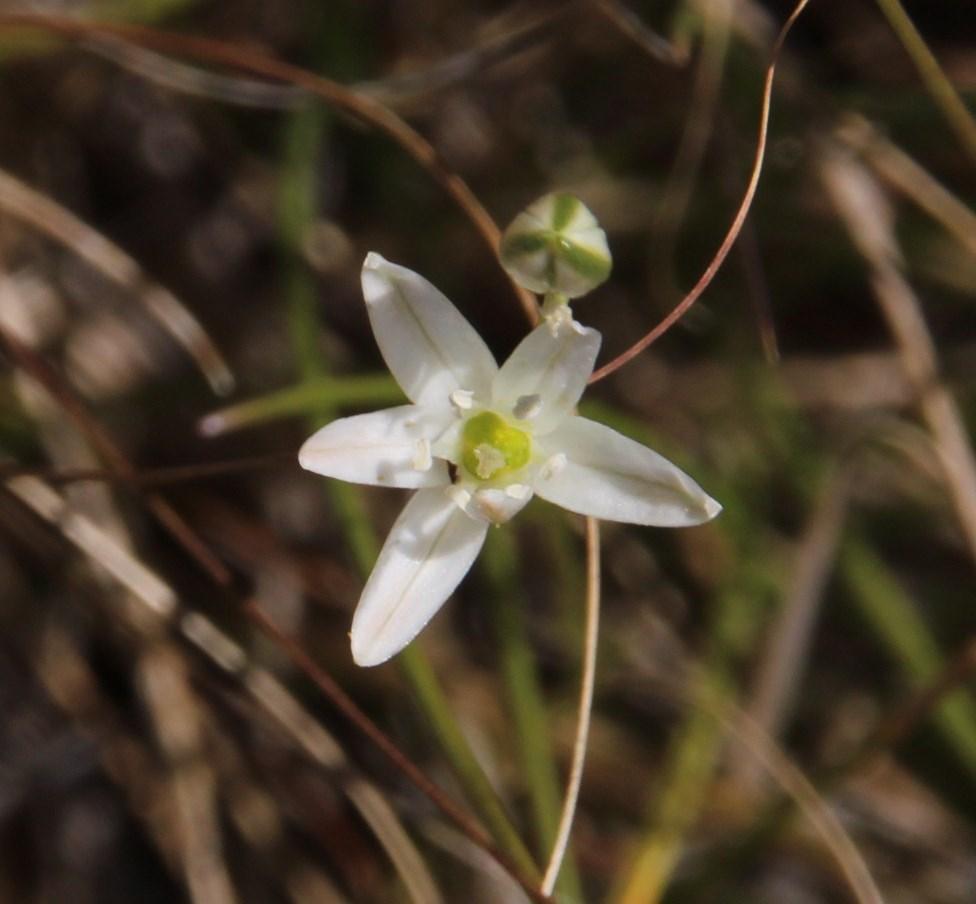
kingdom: Plantae
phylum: Tracheophyta
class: Liliopsida
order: Asparagales
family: Asparagaceae
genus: Ornithogalum
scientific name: Ornithogalum graminifolium
